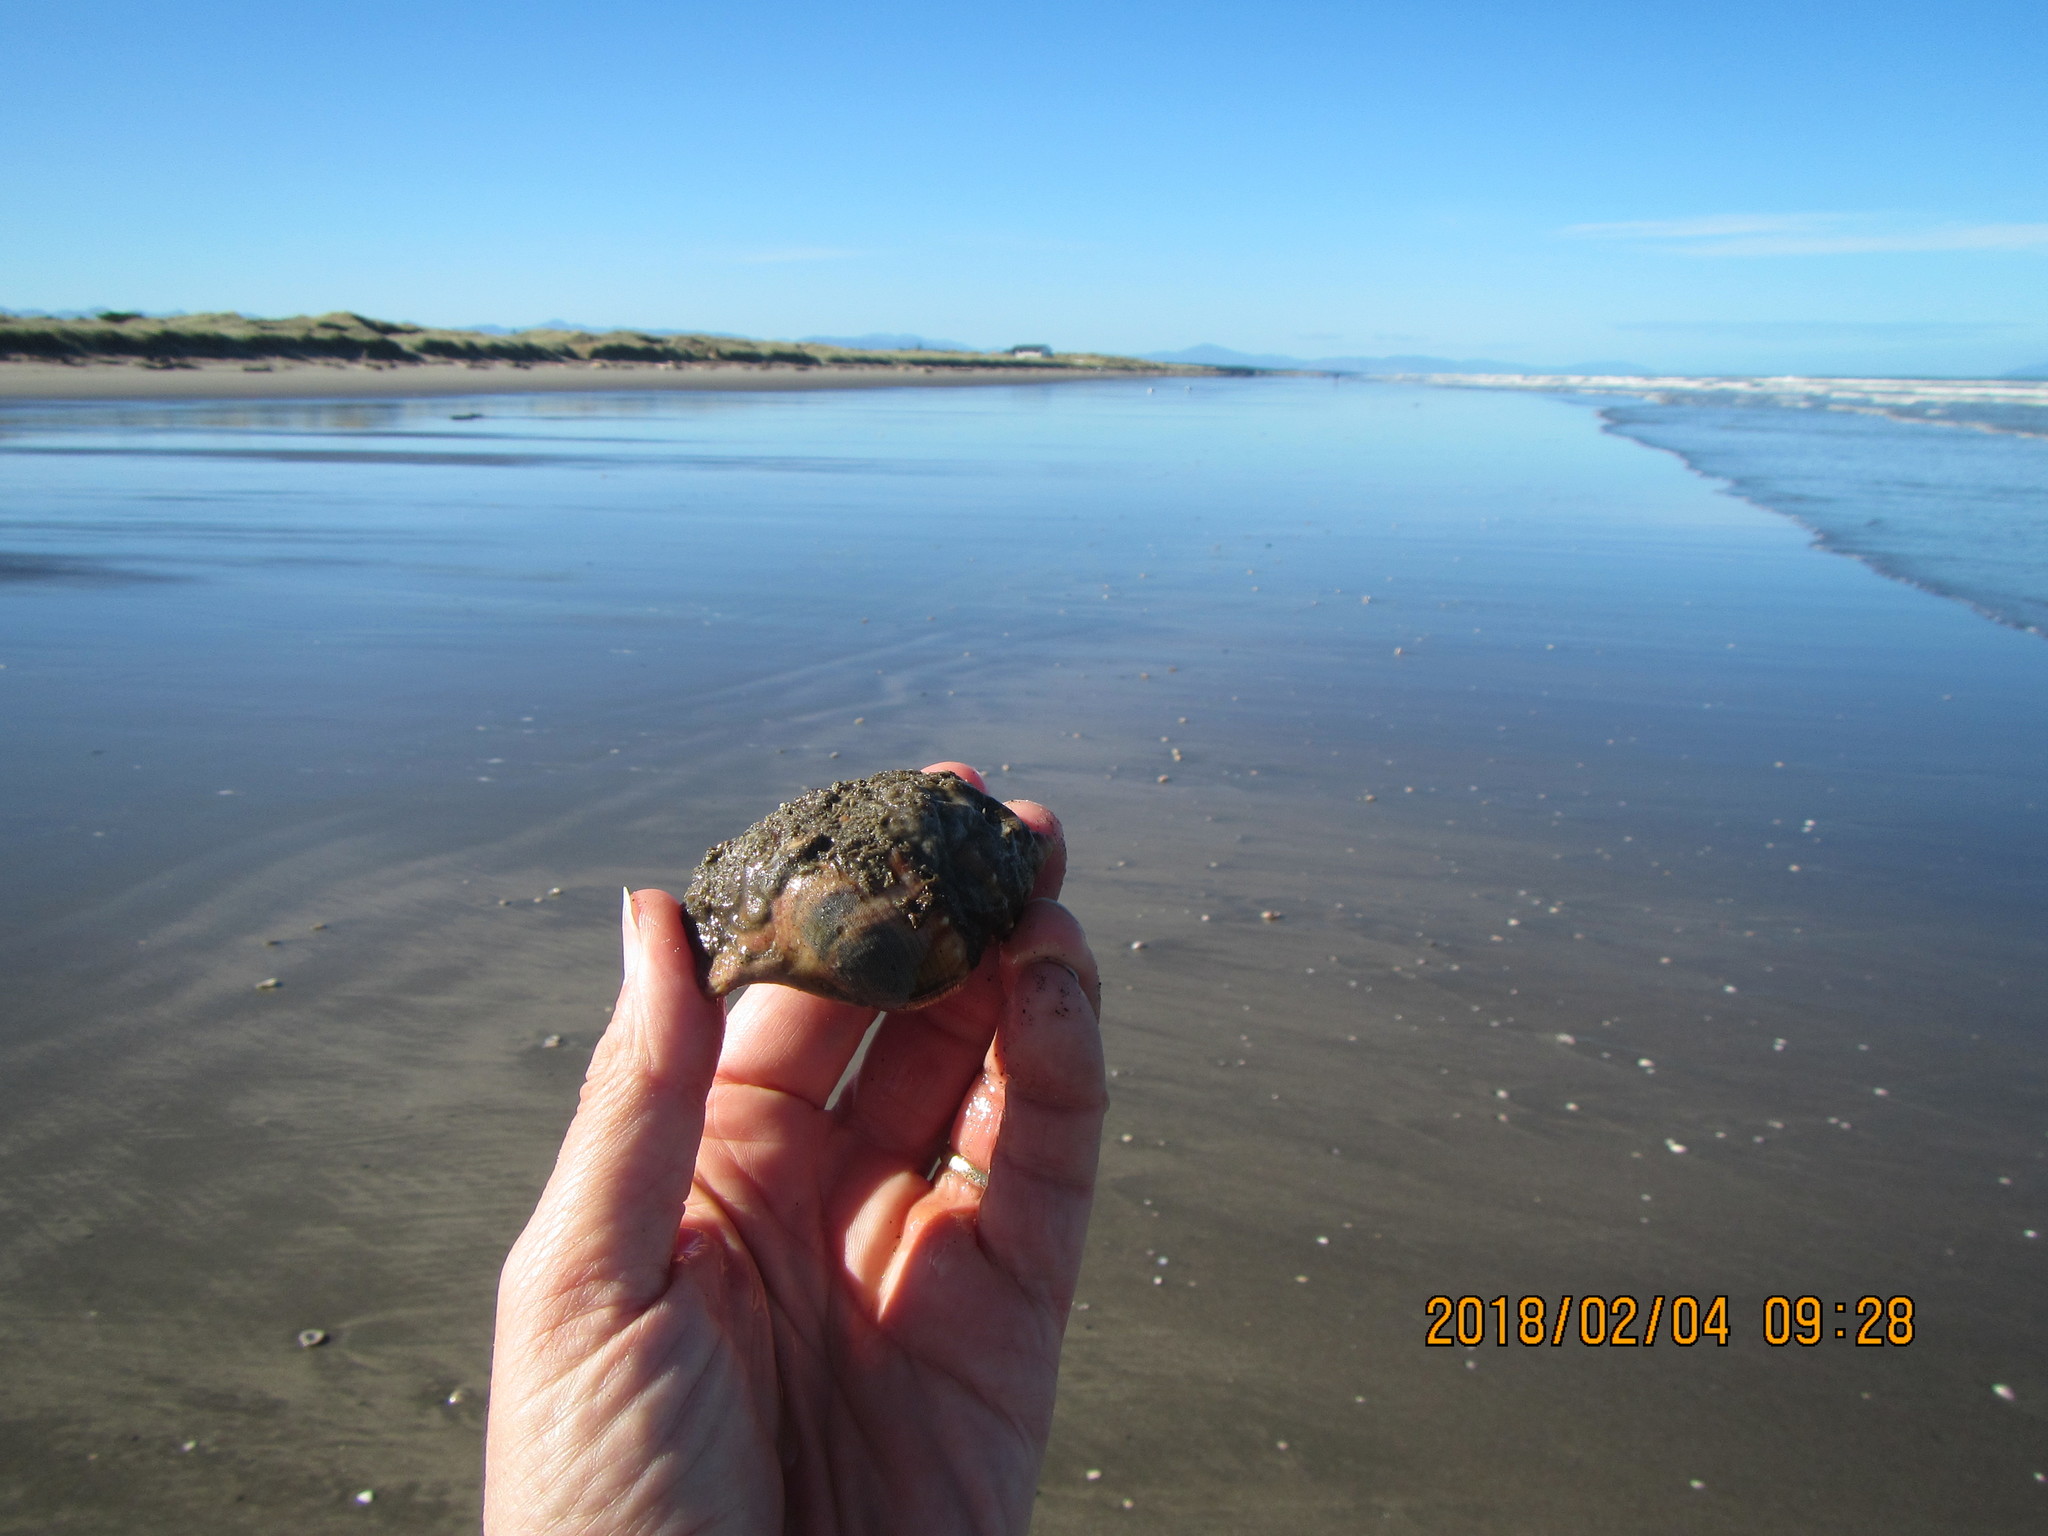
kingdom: Animalia
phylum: Mollusca
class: Gastropoda
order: Littorinimorpha
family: Struthiolariidae
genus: Struthiolaria
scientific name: Struthiolaria papulosa
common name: Large ostrich foot
